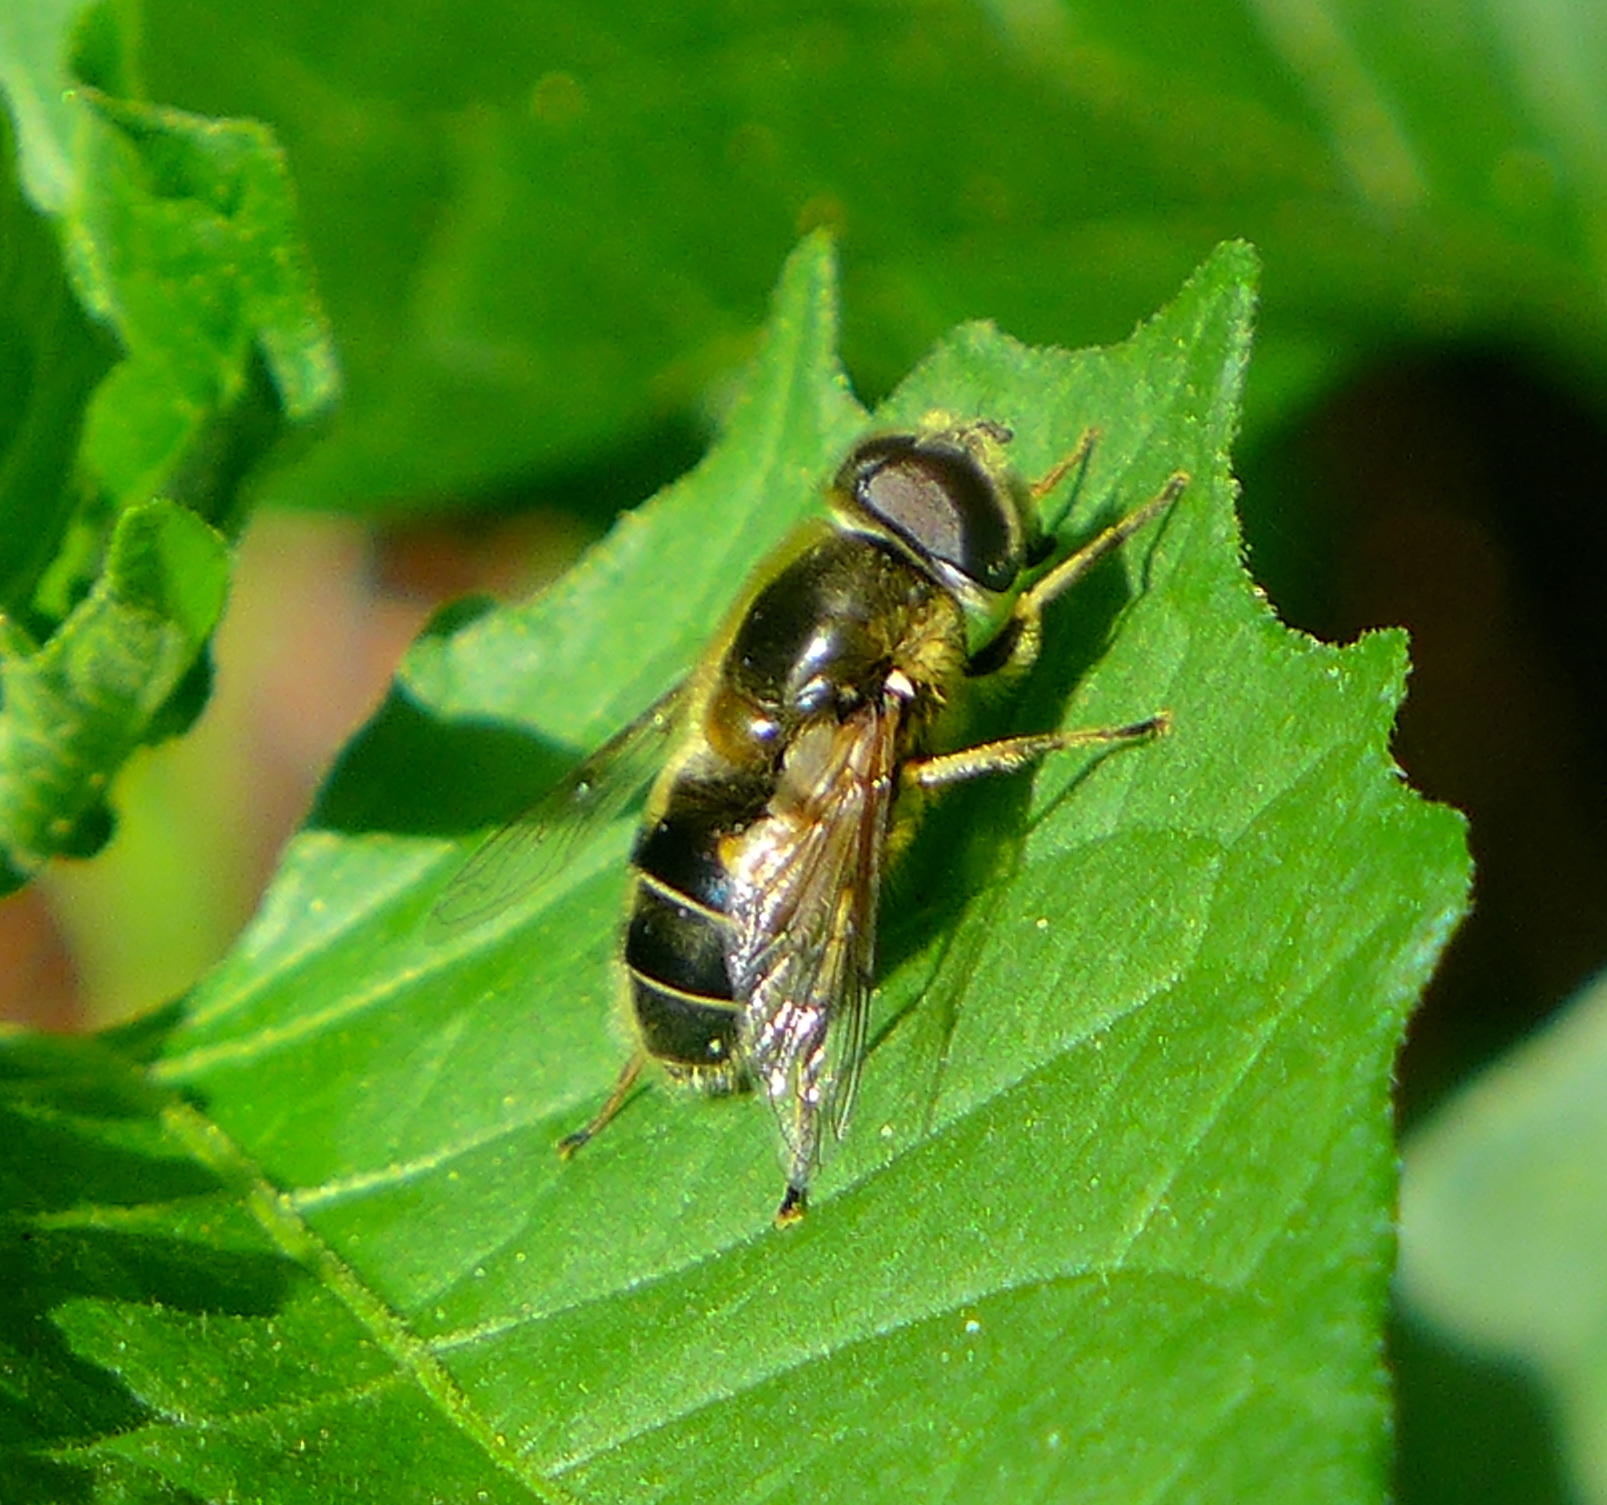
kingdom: Animalia
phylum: Arthropoda
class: Insecta
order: Diptera
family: Syrphidae
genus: Eristalis
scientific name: Eristalis nemorum
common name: Orange-spined drone fly
